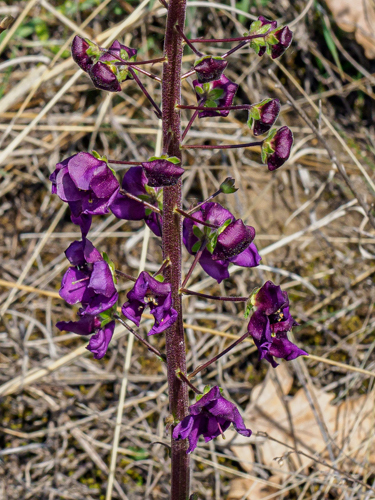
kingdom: Plantae
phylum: Tracheophyta
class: Magnoliopsida
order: Lamiales
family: Scrophulariaceae
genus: Verbascum
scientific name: Verbascum phoeniceum
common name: Purple mullein
